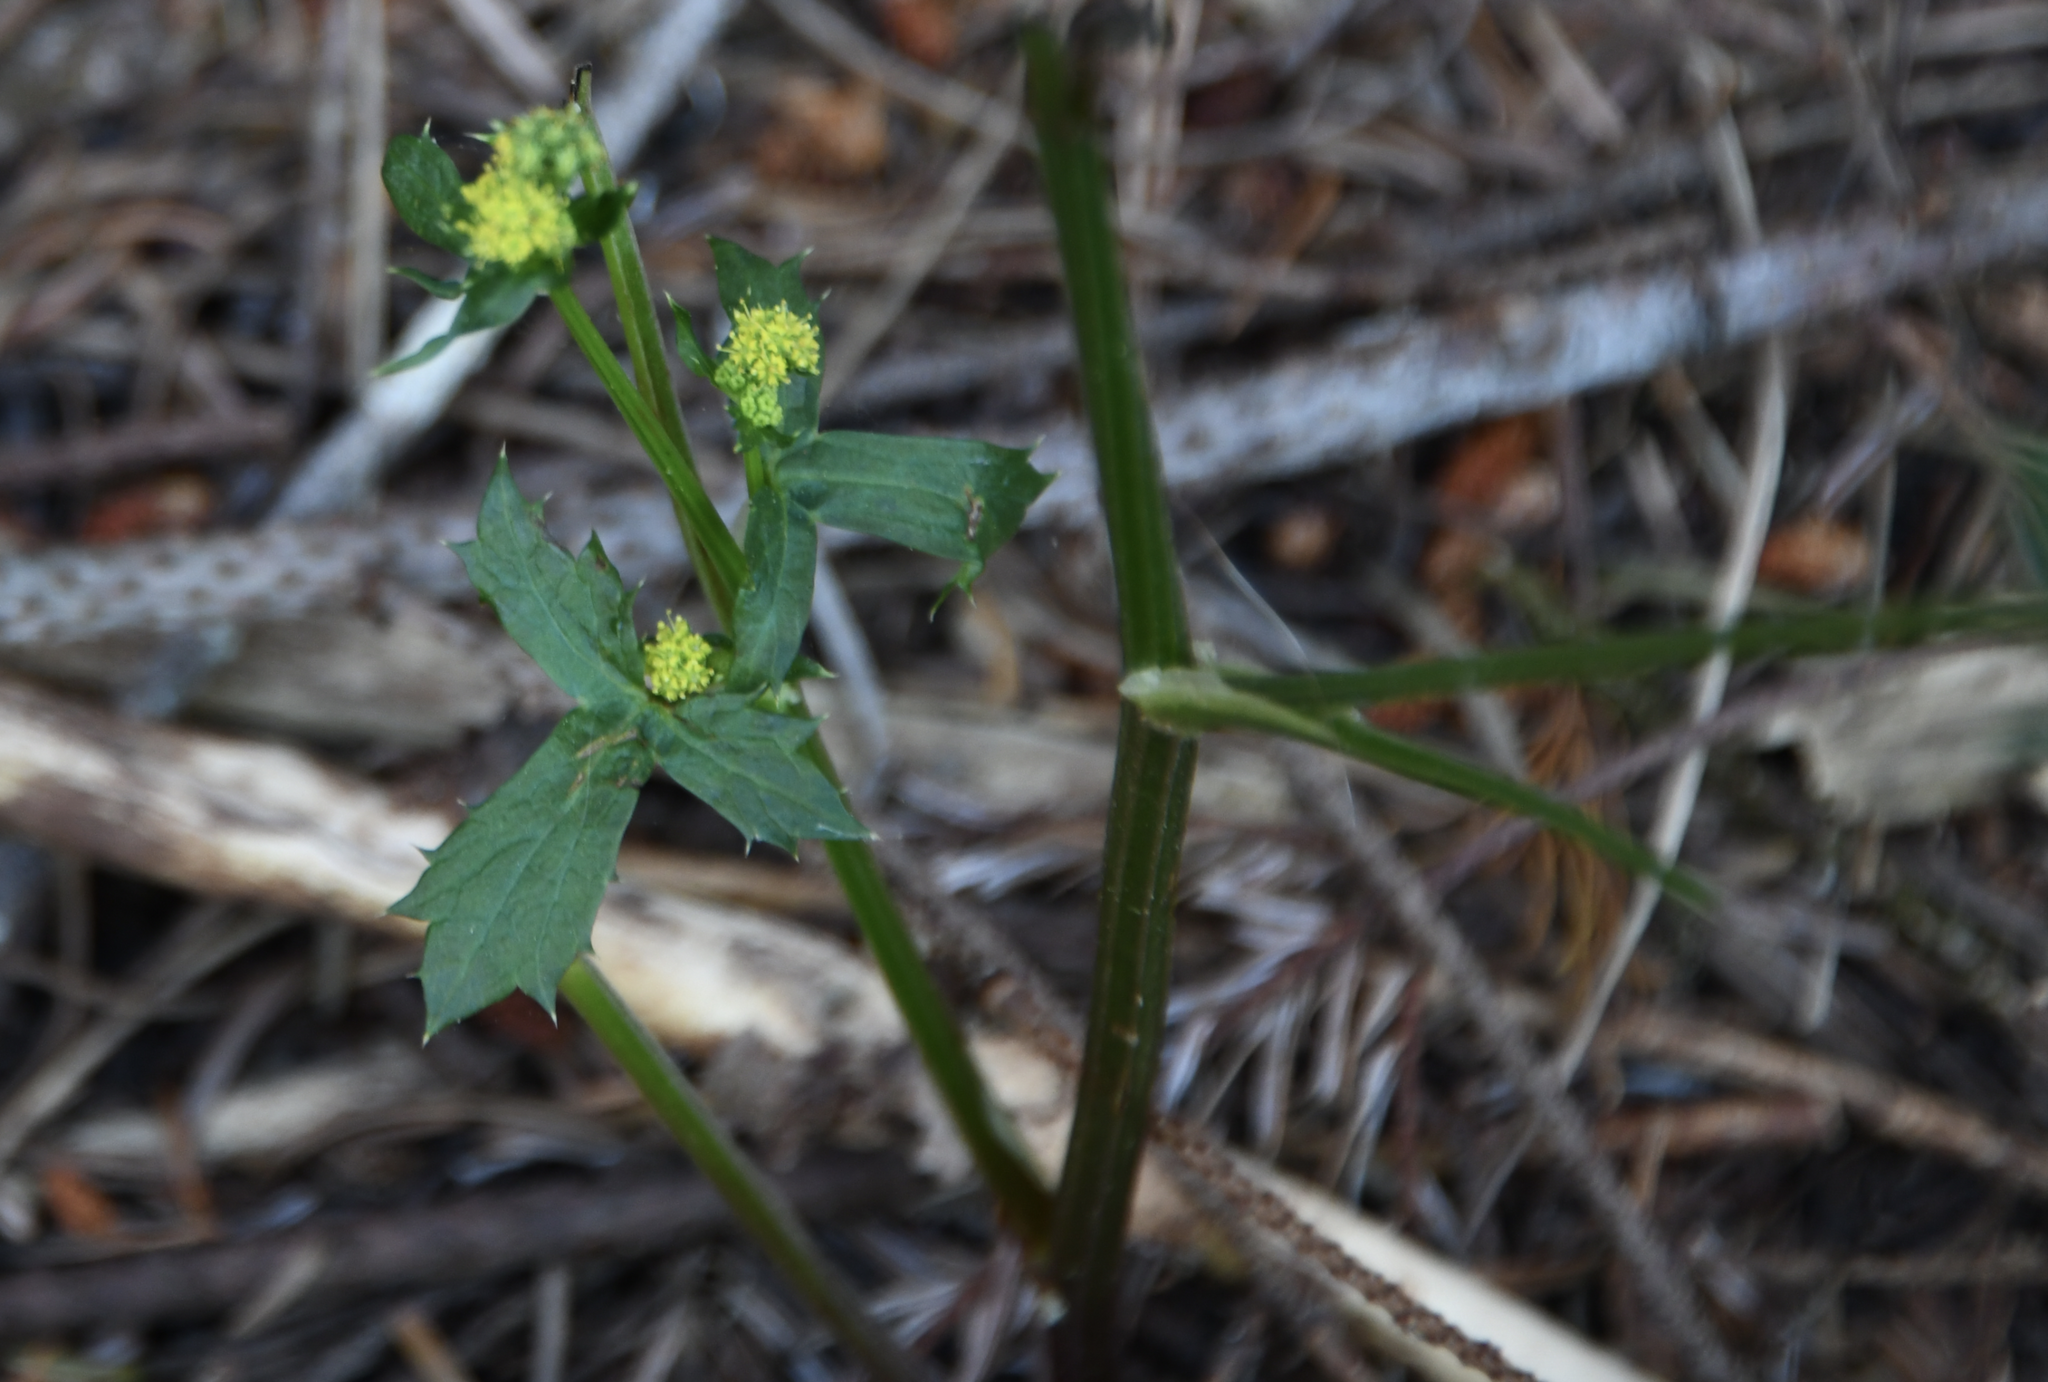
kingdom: Plantae
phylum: Tracheophyta
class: Magnoliopsida
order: Apiales
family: Apiaceae
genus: Sanicula
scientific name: Sanicula crassicaulis
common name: Western snakeroot
